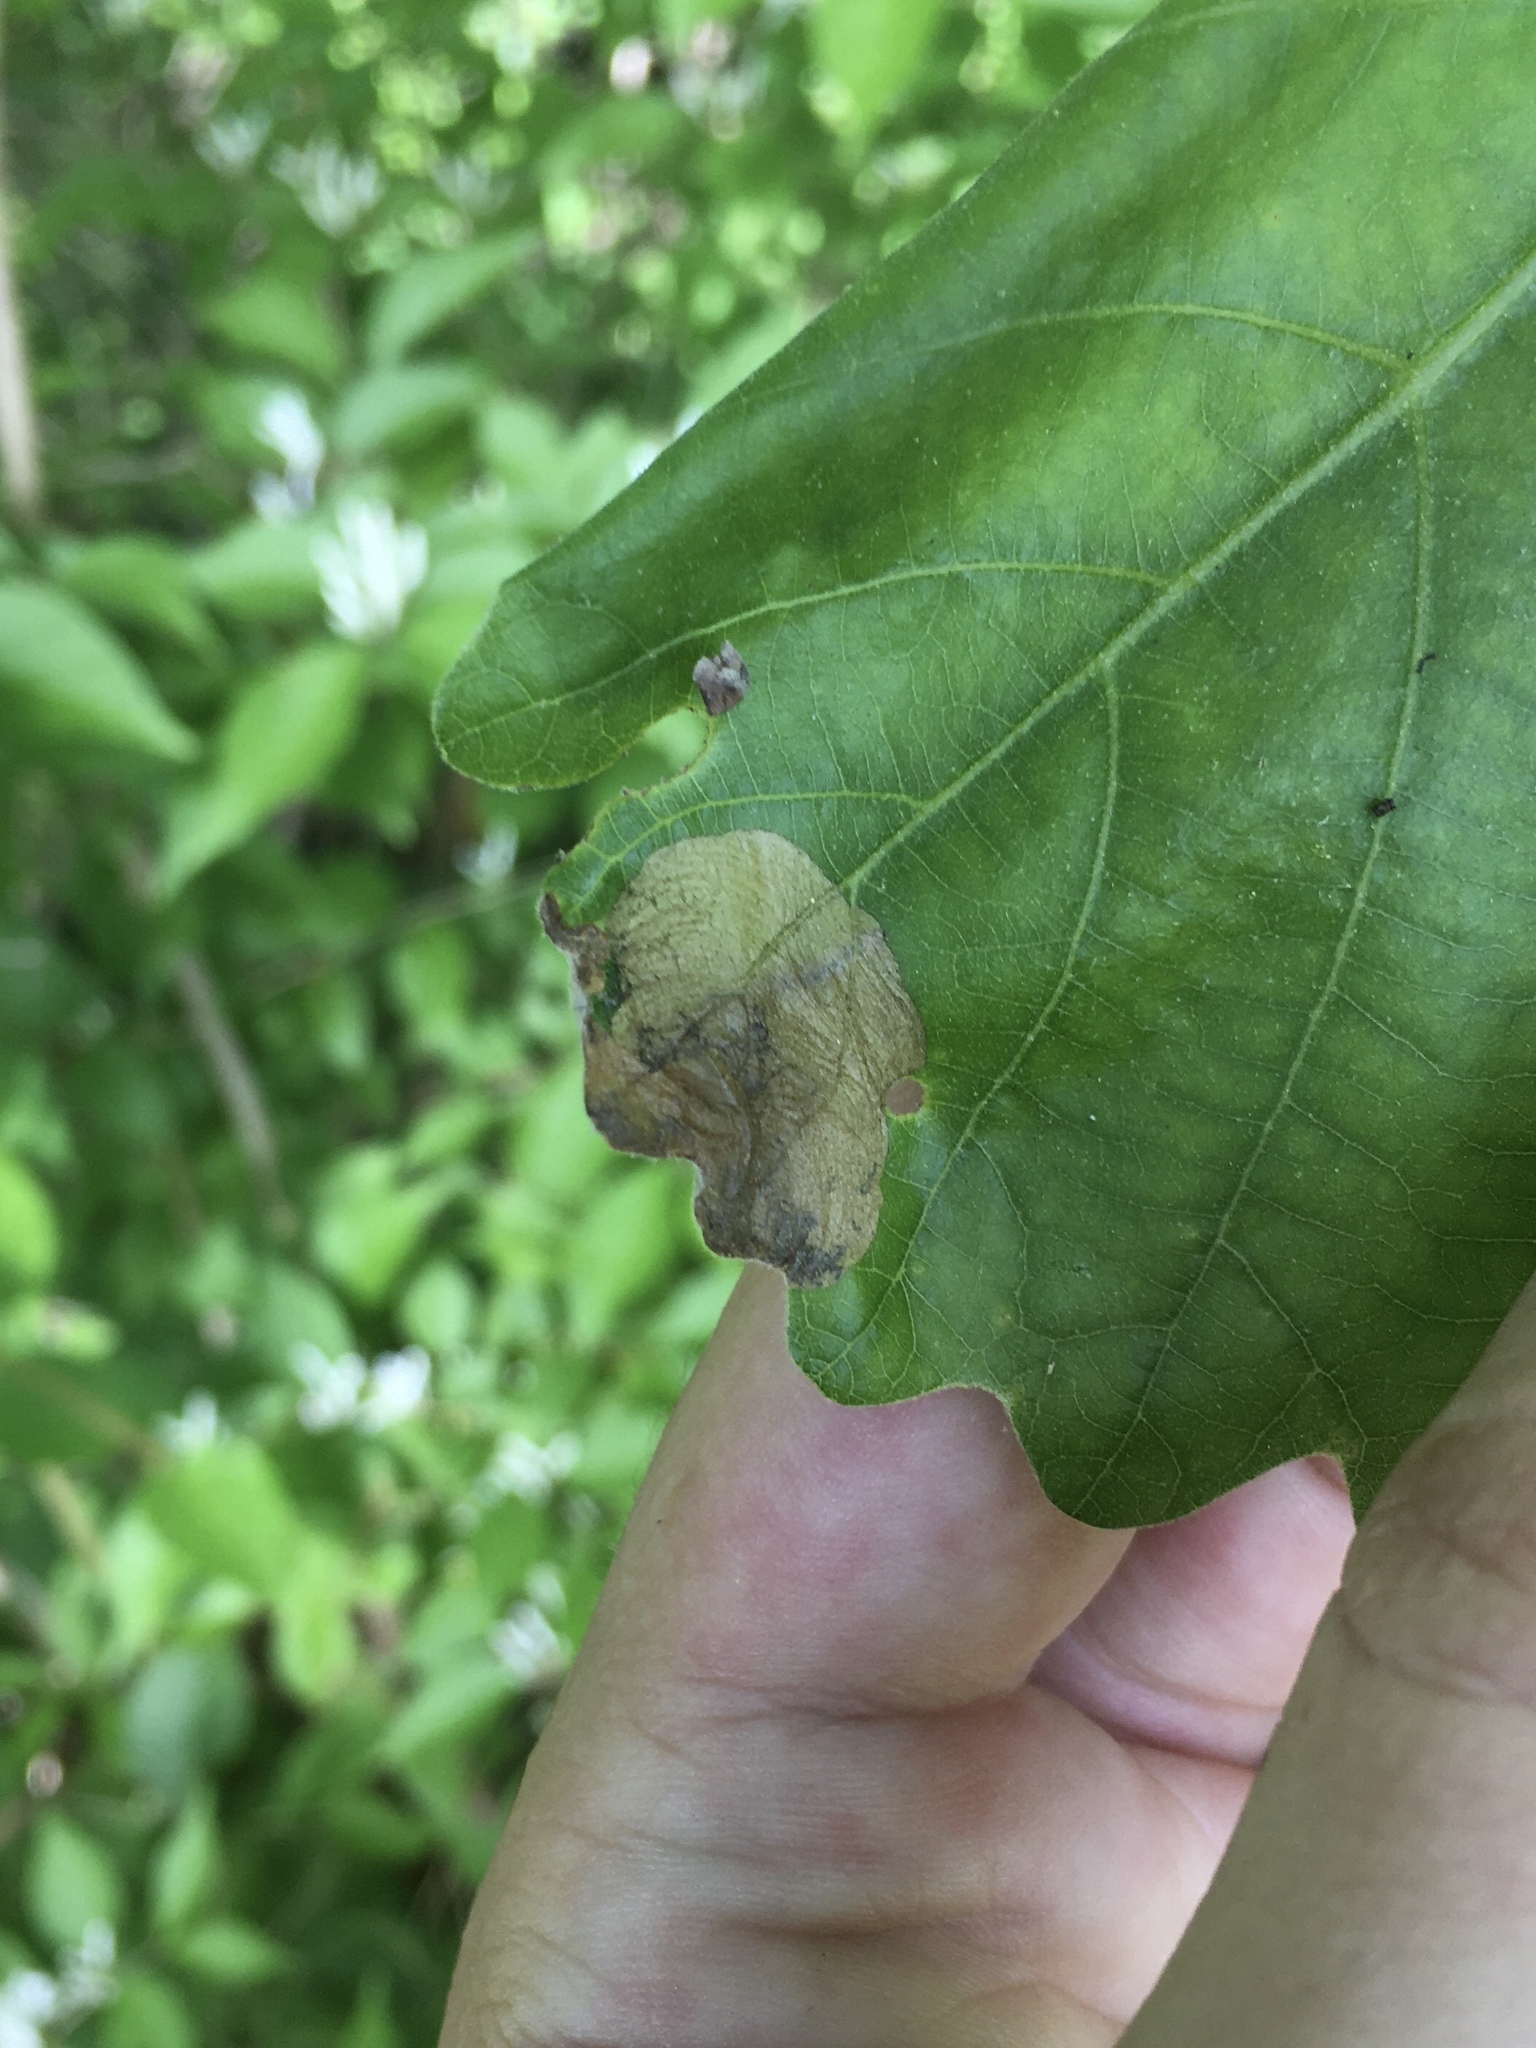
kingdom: Animalia
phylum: Arthropoda
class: Insecta
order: Lepidoptera
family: Eriocraniidae
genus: Dyseriocrania
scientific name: Dyseriocrania griseocapitella
